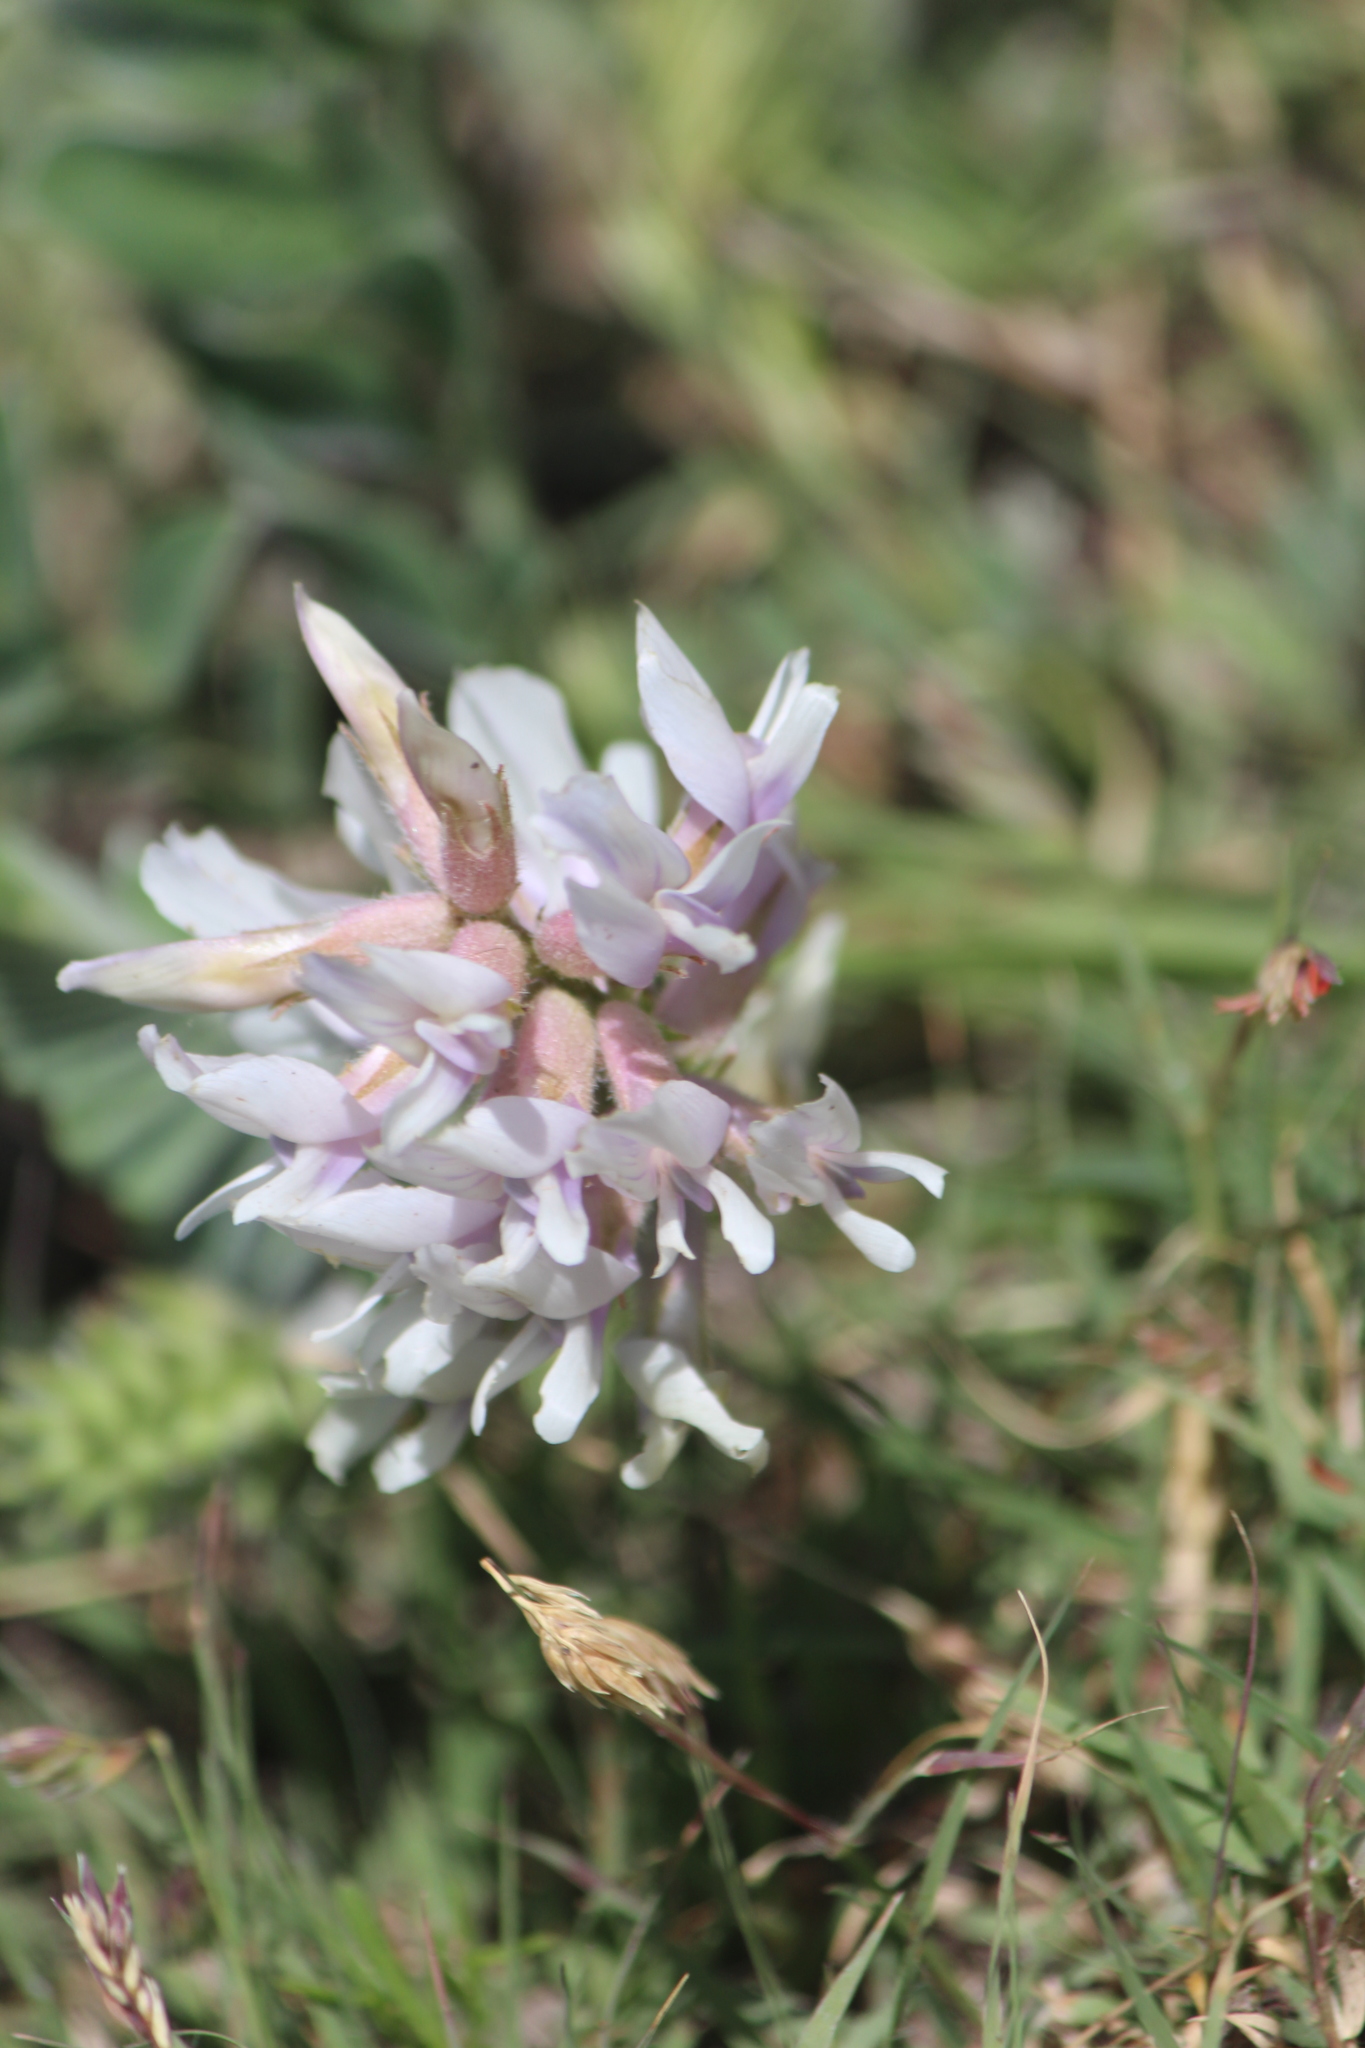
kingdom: Plantae
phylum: Tracheophyta
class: Magnoliopsida
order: Fabales
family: Fabaceae
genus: Astragalus
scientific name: Astragalus mollissimus
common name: Woolly locoweed
